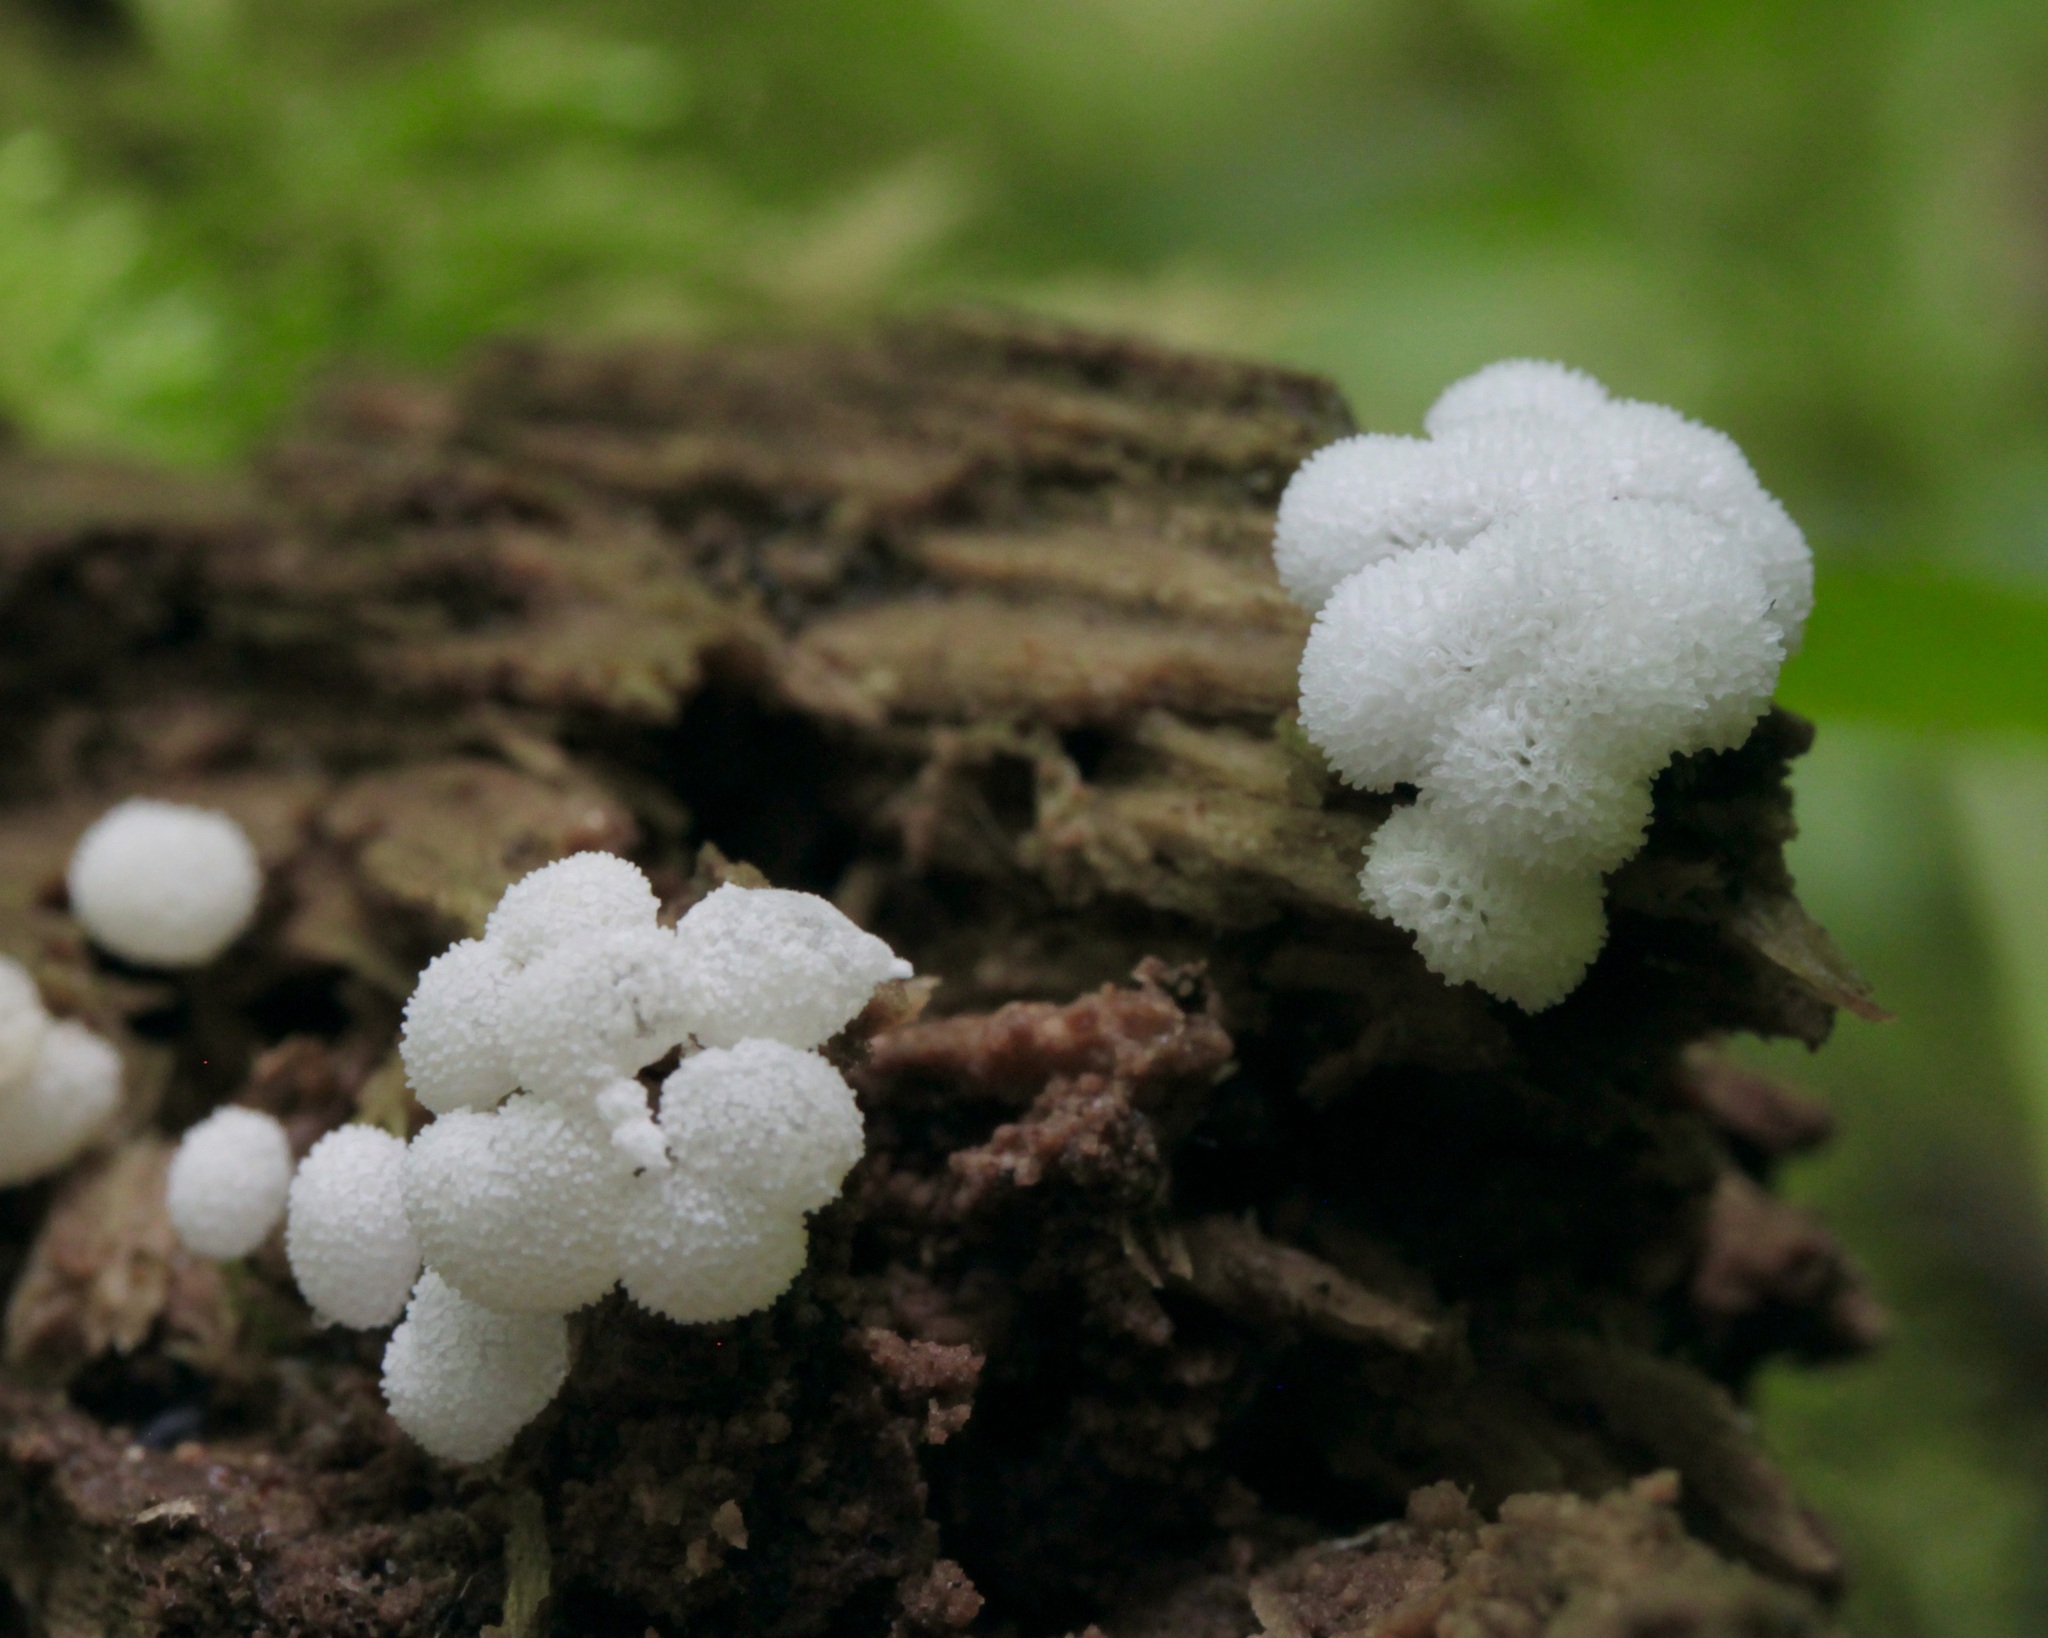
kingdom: Protozoa
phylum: Mycetozoa
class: Protosteliomycetes
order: Ceratiomyxales
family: Ceratiomyxaceae
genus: Ceratiomyxa
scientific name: Ceratiomyxa fruticulosa
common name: Honeycomb coral slime mold
